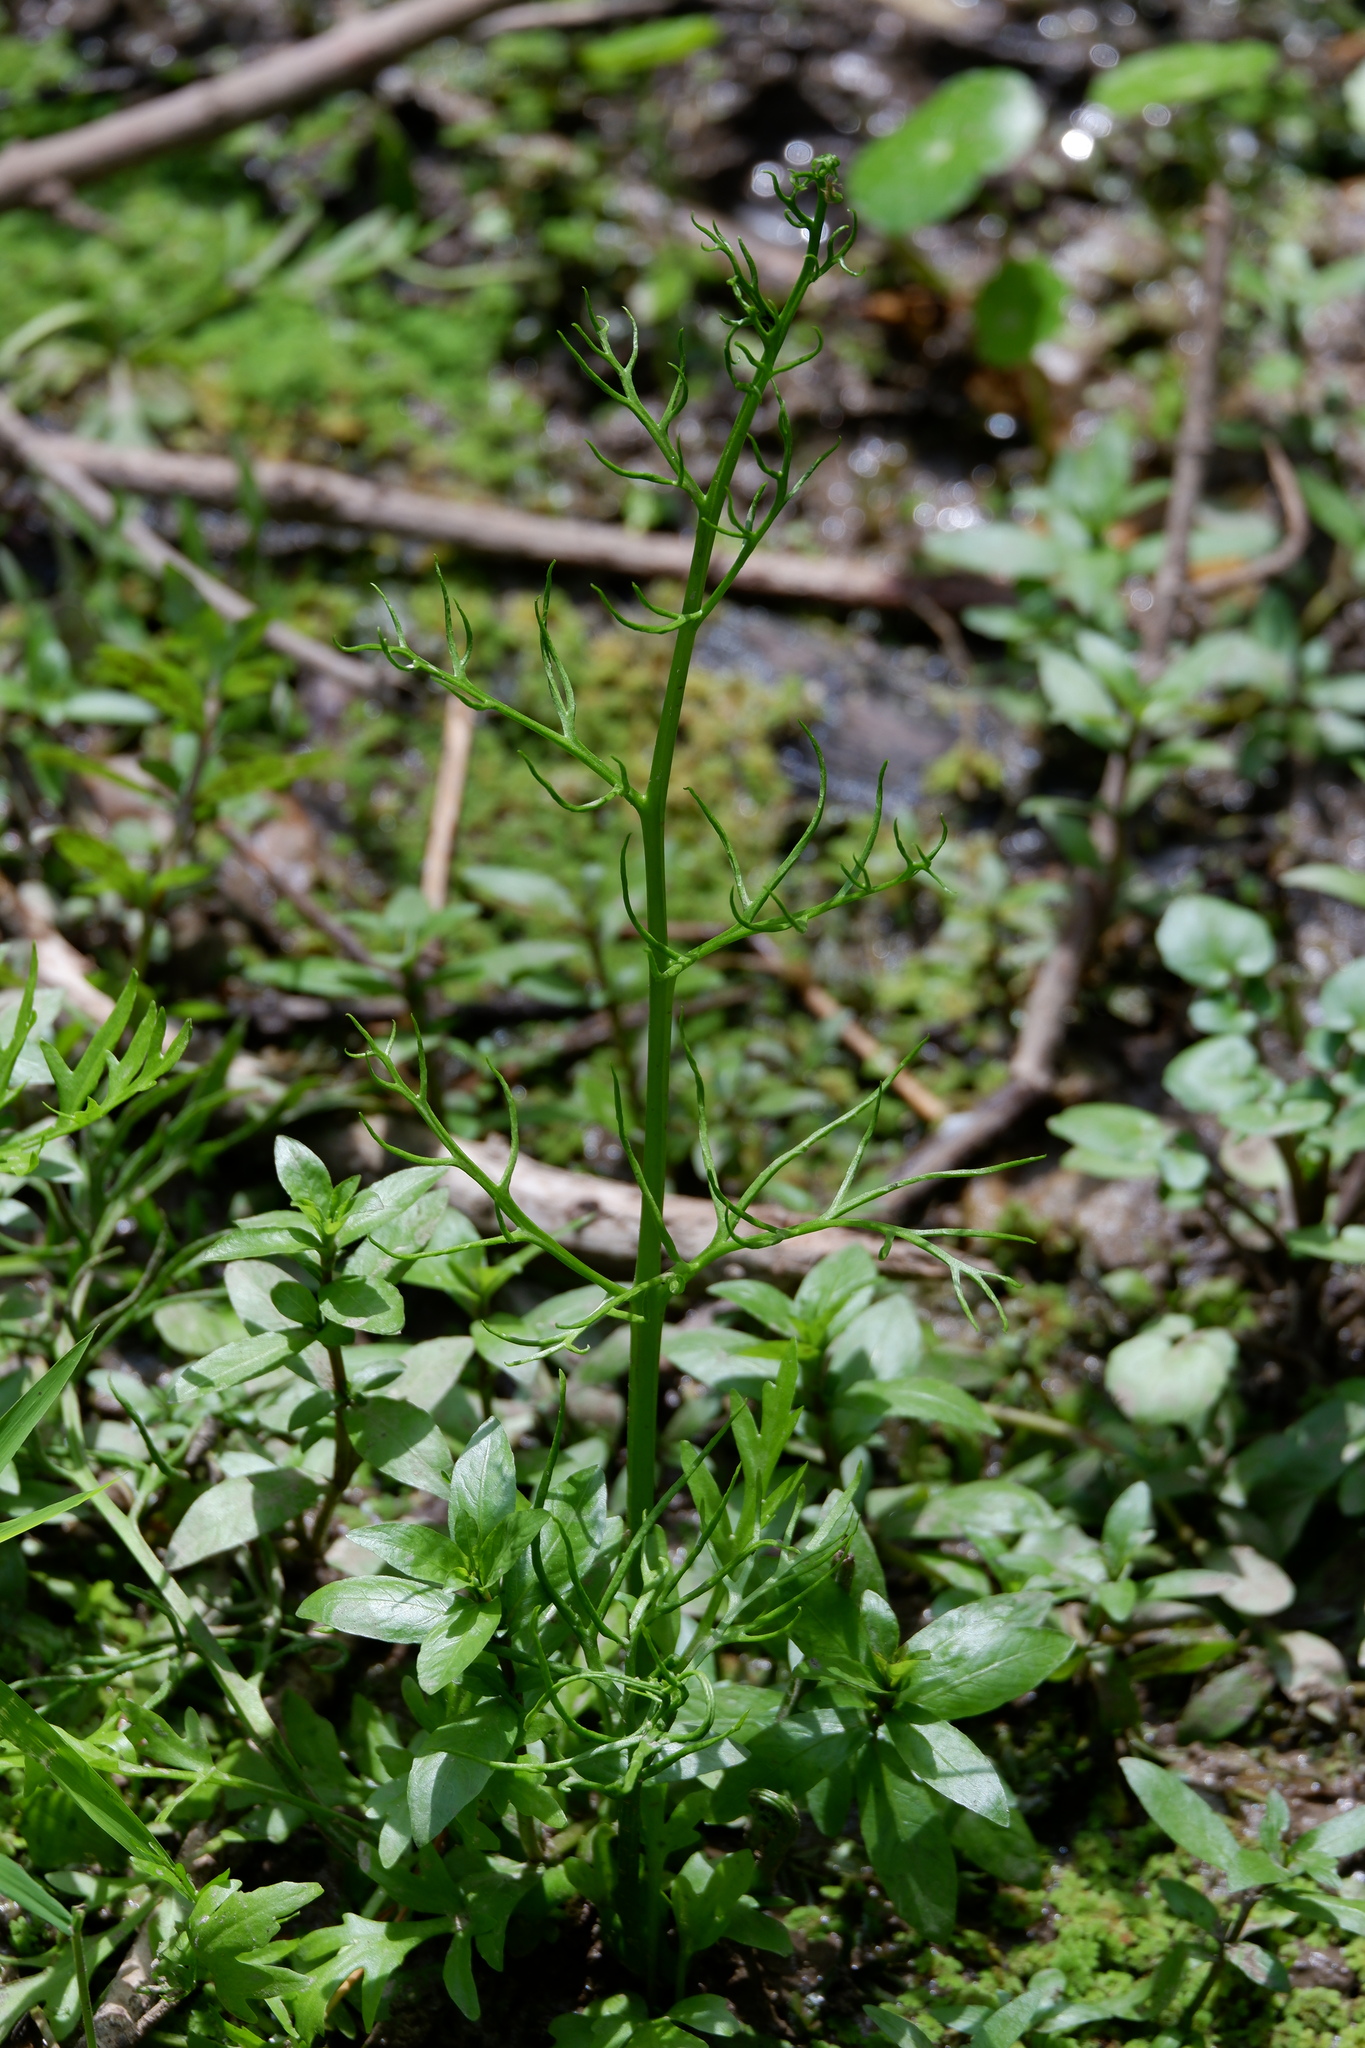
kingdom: Plantae
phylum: Tracheophyta
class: Polypodiopsida
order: Polypodiales
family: Pteridaceae
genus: Ceratopteris
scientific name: Ceratopteris thalictroides
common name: Water fern
